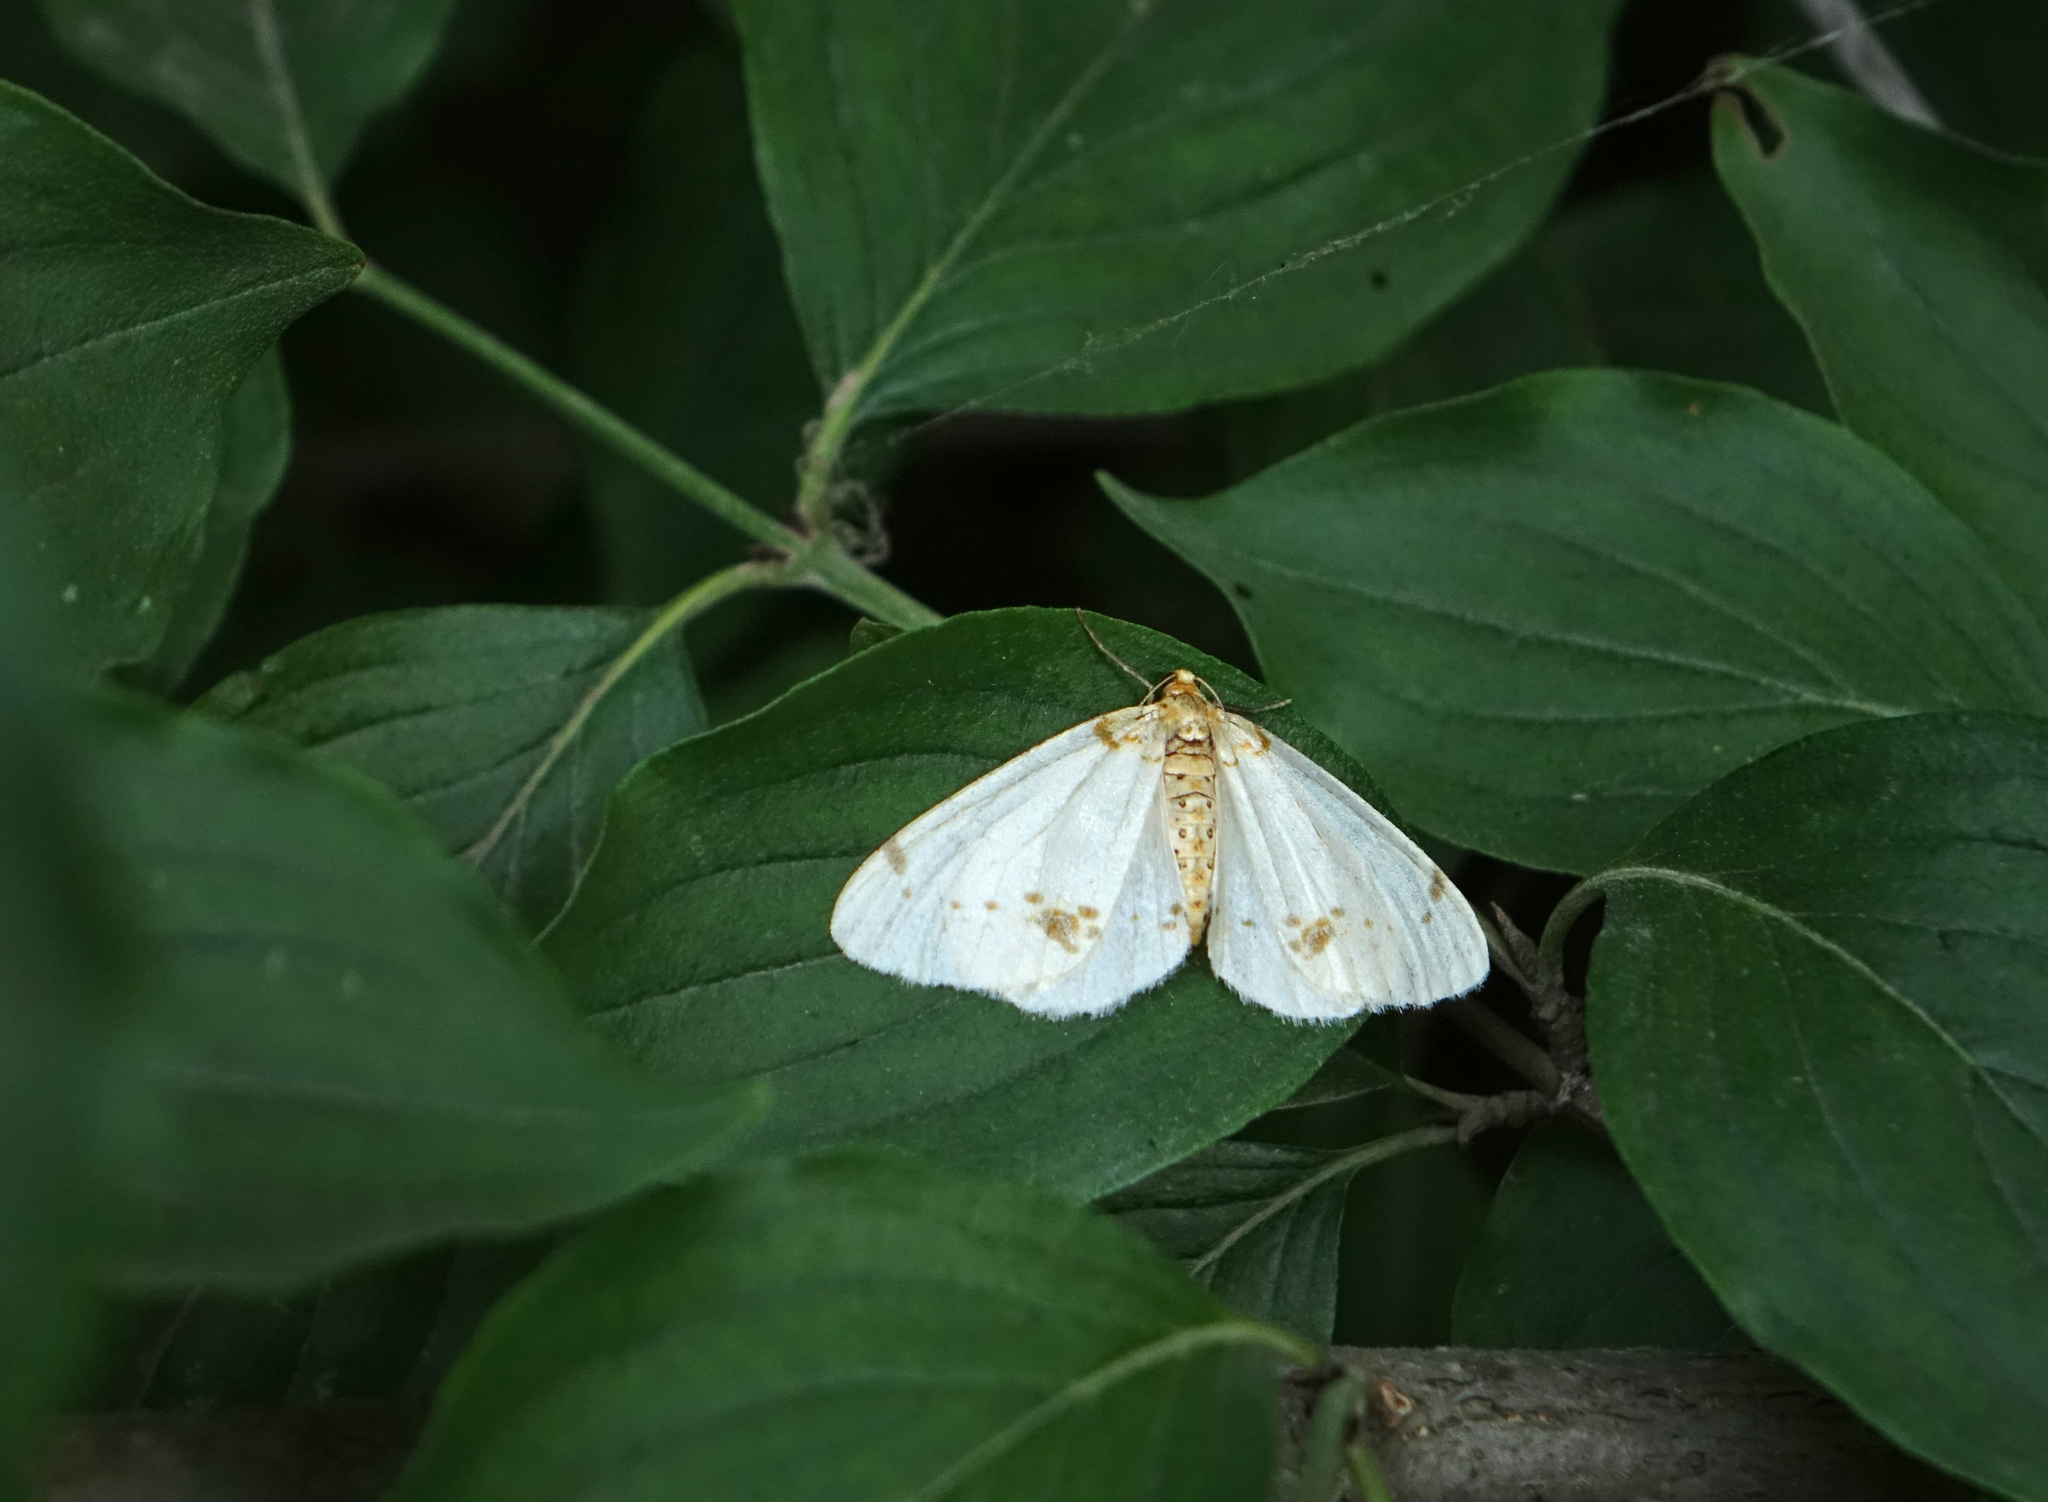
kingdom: Animalia
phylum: Arthropoda
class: Insecta
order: Lepidoptera
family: Geometridae
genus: Abraxas
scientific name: Abraxas pantaria
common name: Light magpie
